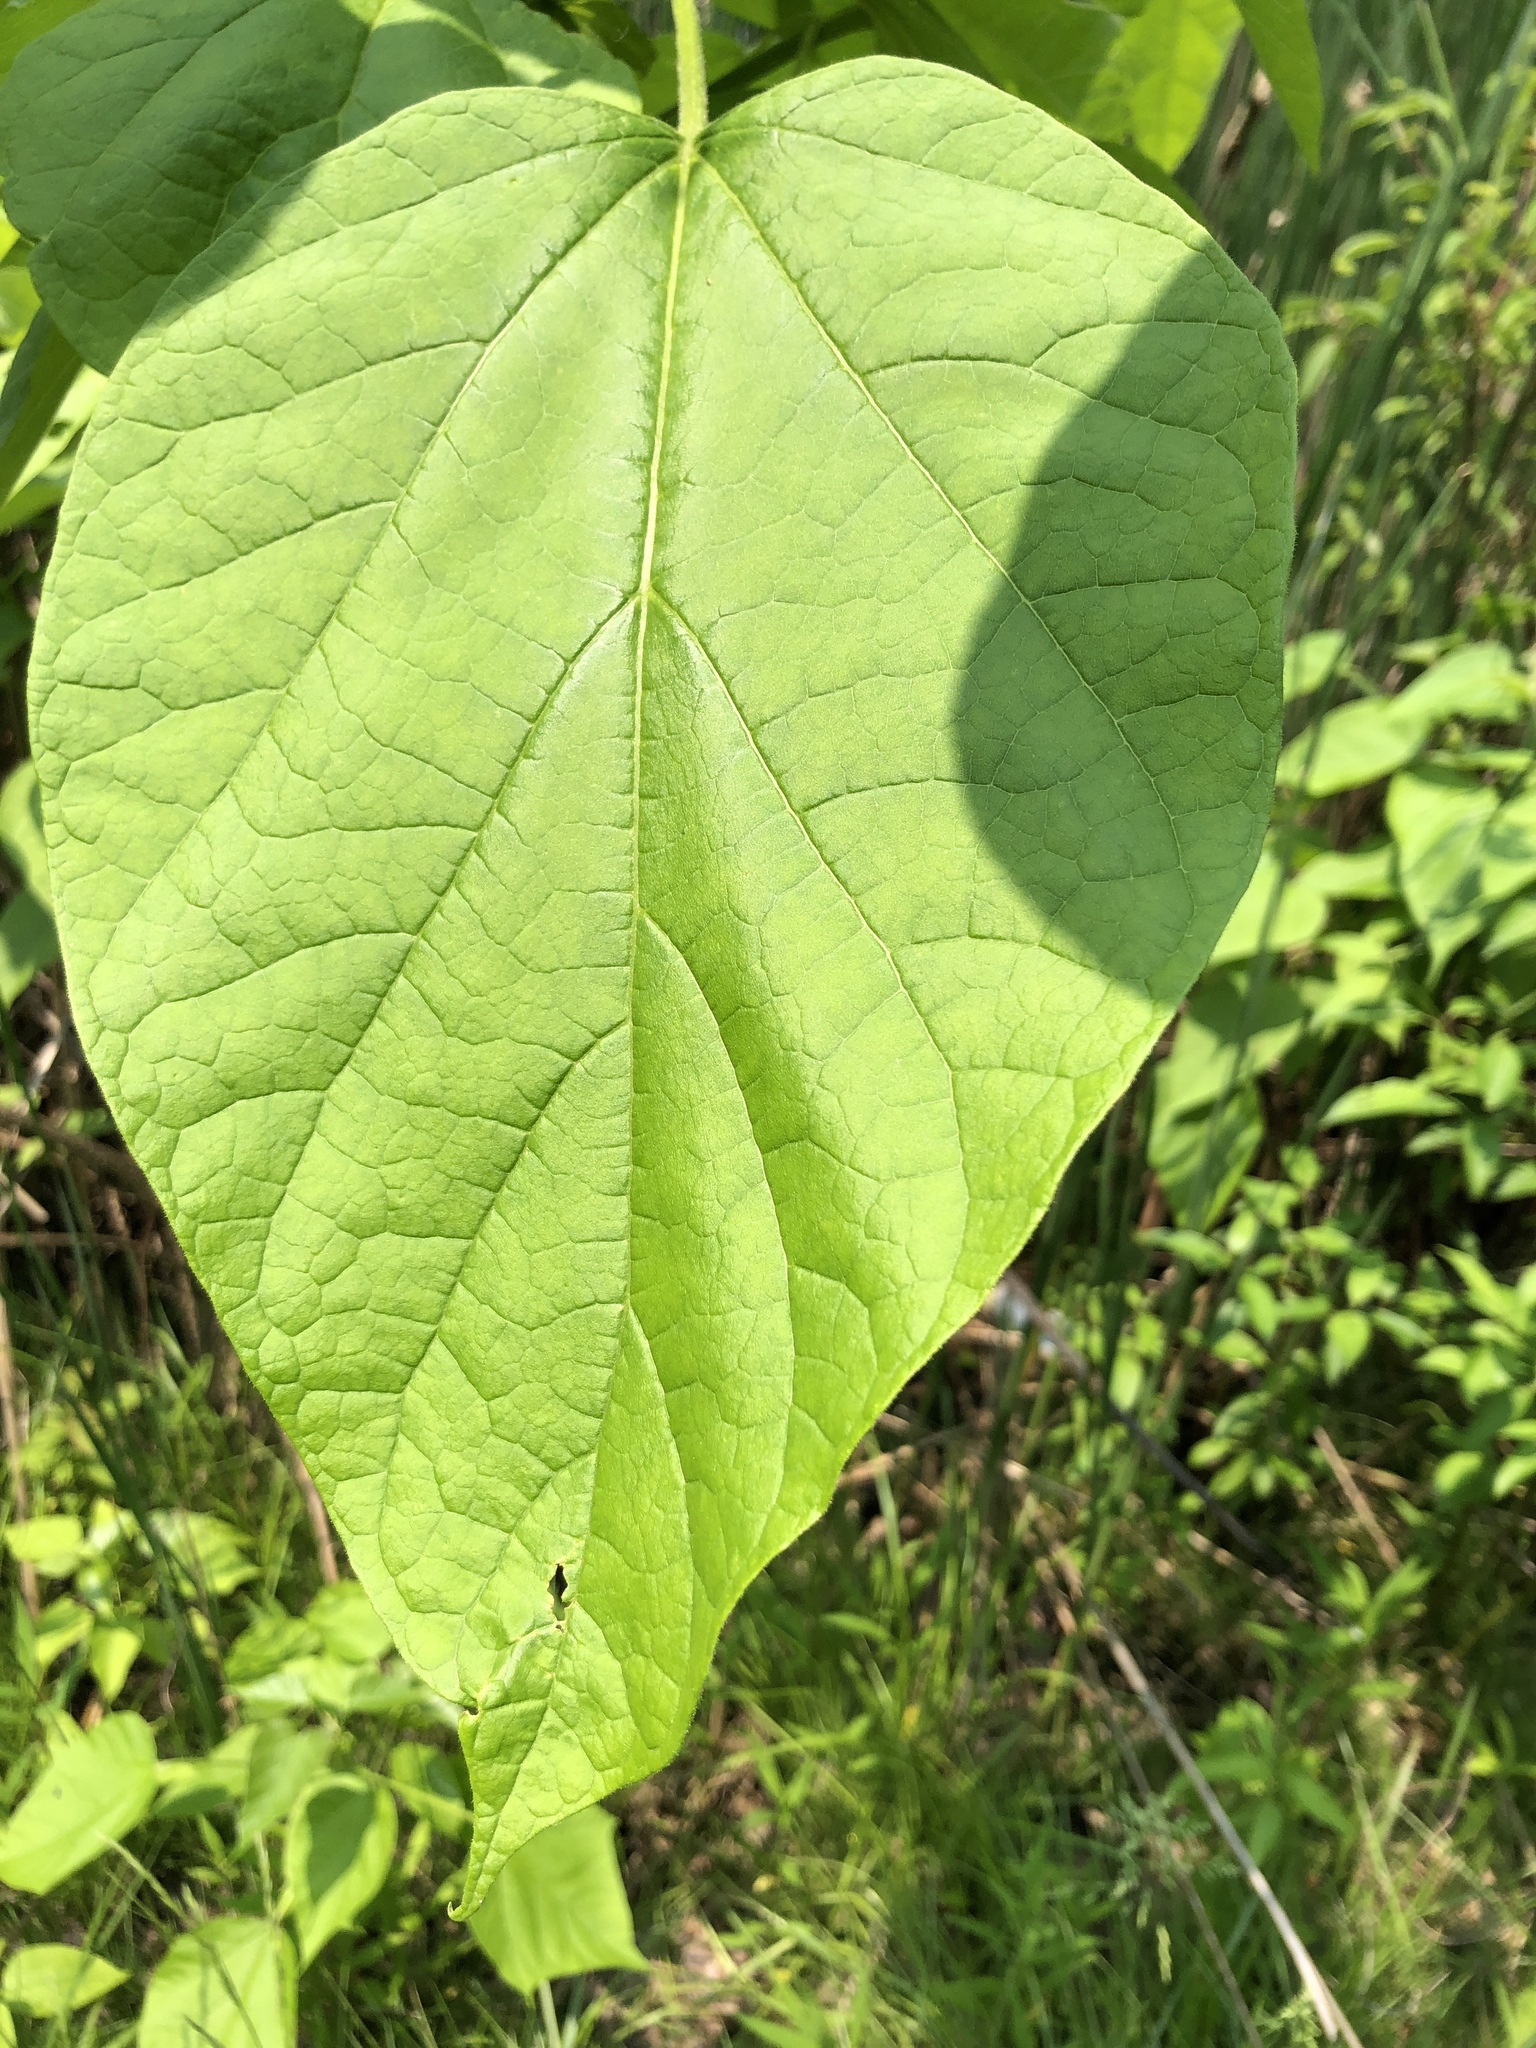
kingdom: Plantae
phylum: Tracheophyta
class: Magnoliopsida
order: Lamiales
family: Bignoniaceae
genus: Catalpa
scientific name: Catalpa speciosa
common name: Northern catalpa
